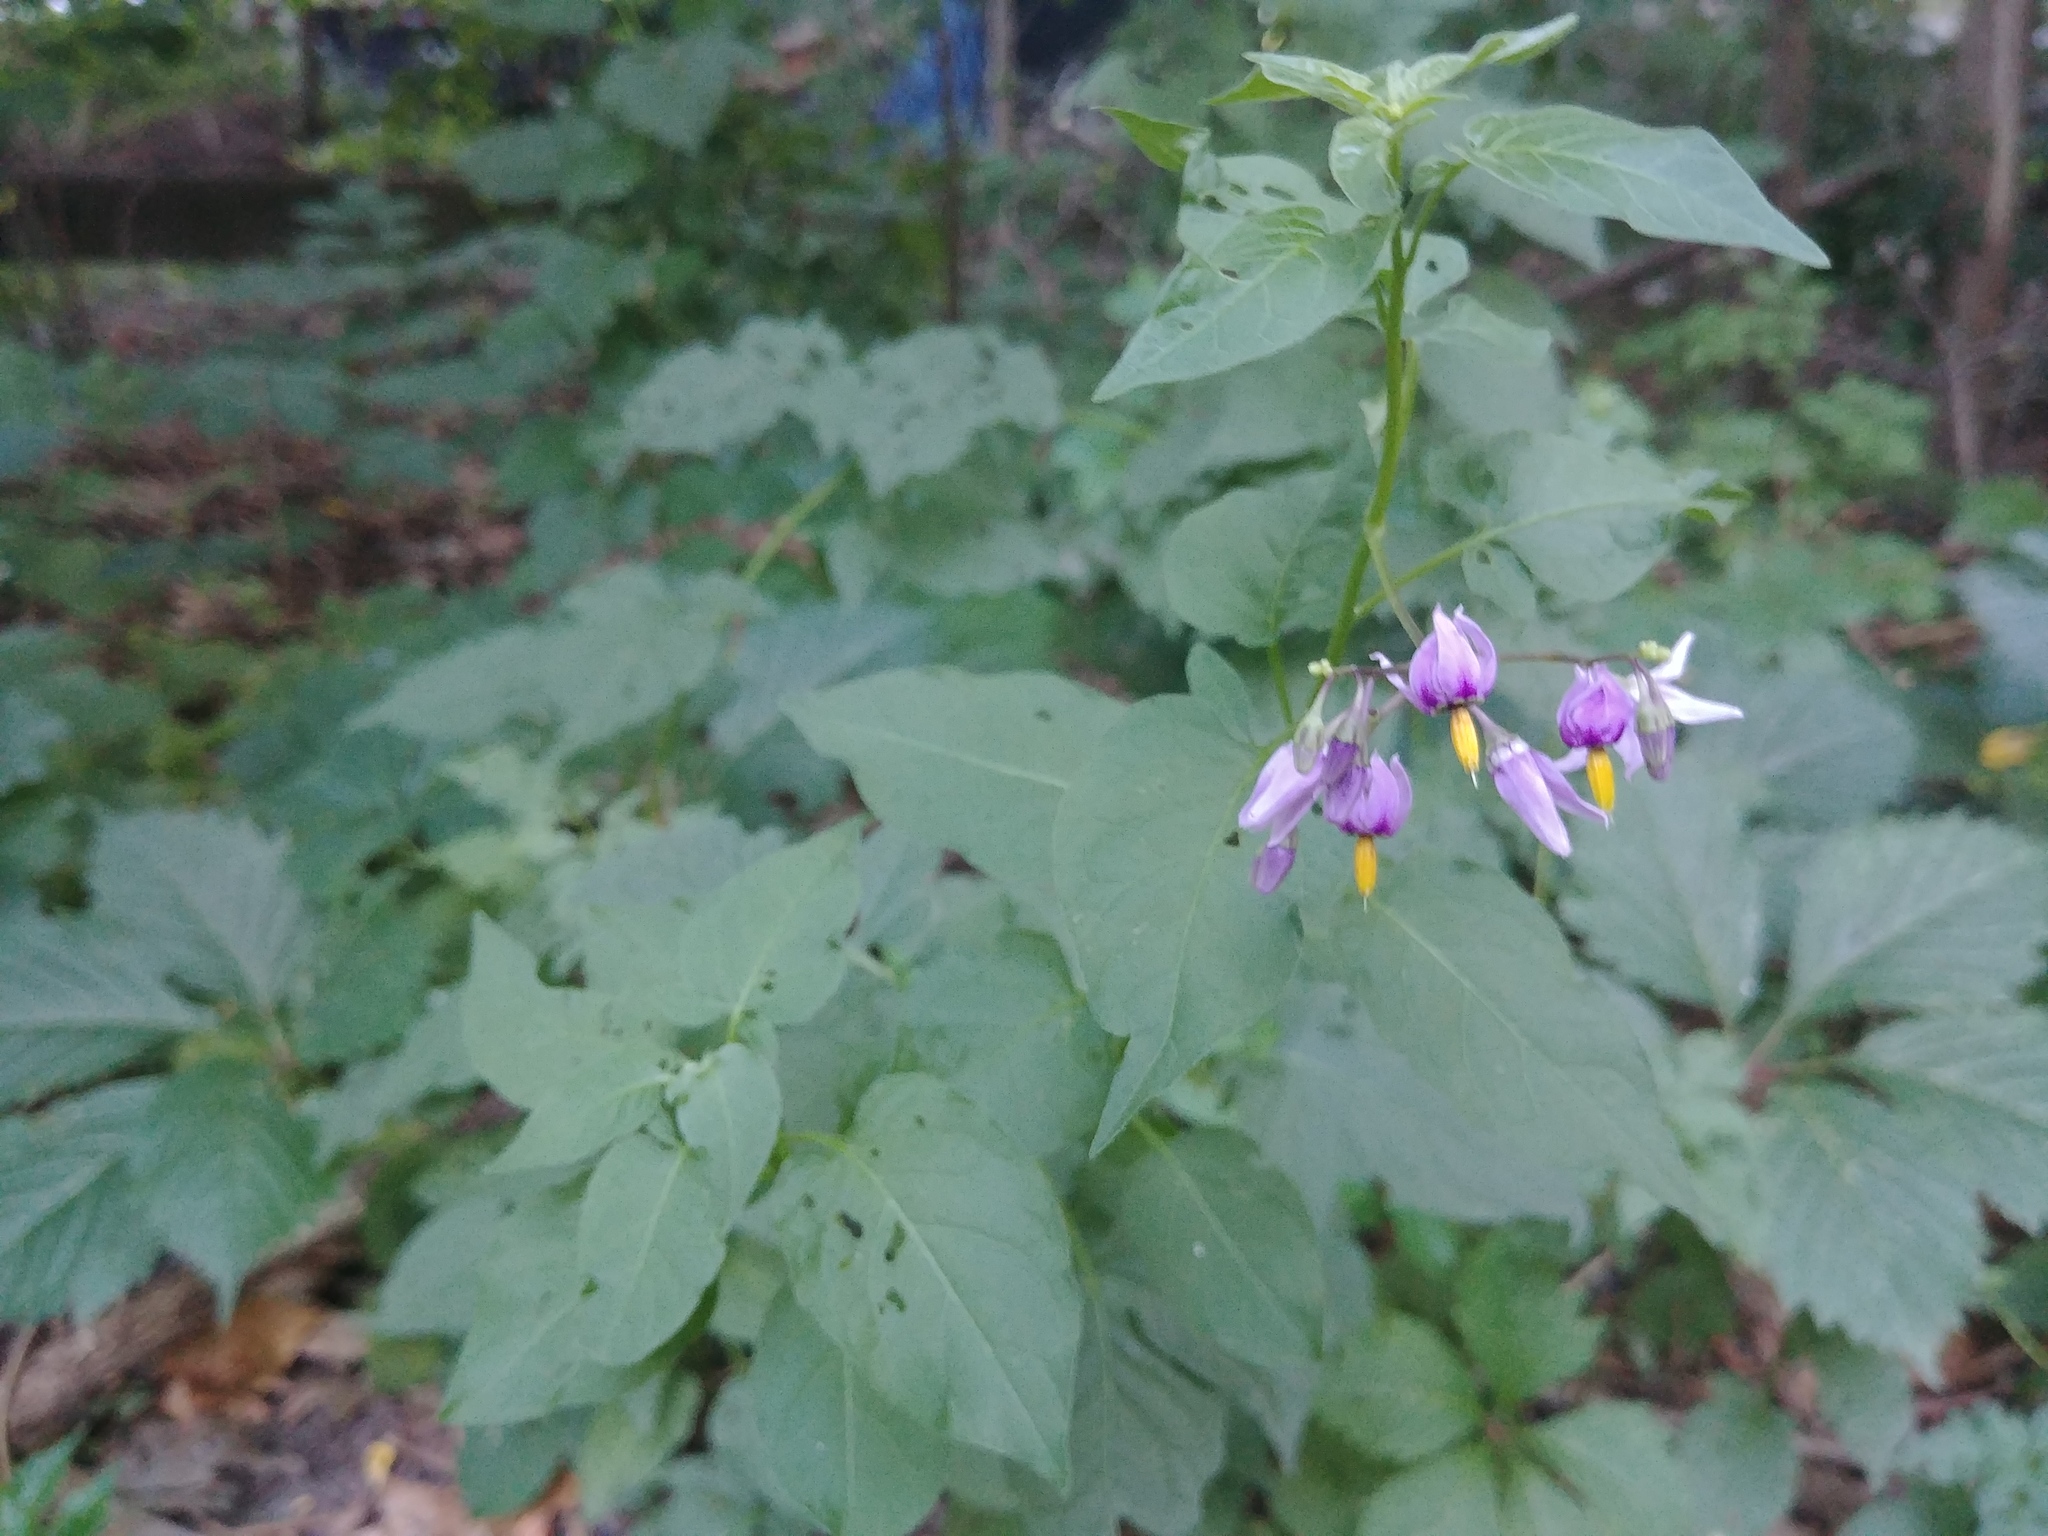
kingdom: Plantae
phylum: Tracheophyta
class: Magnoliopsida
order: Solanales
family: Solanaceae
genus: Solanum
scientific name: Solanum dulcamara
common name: Climbing nightshade
